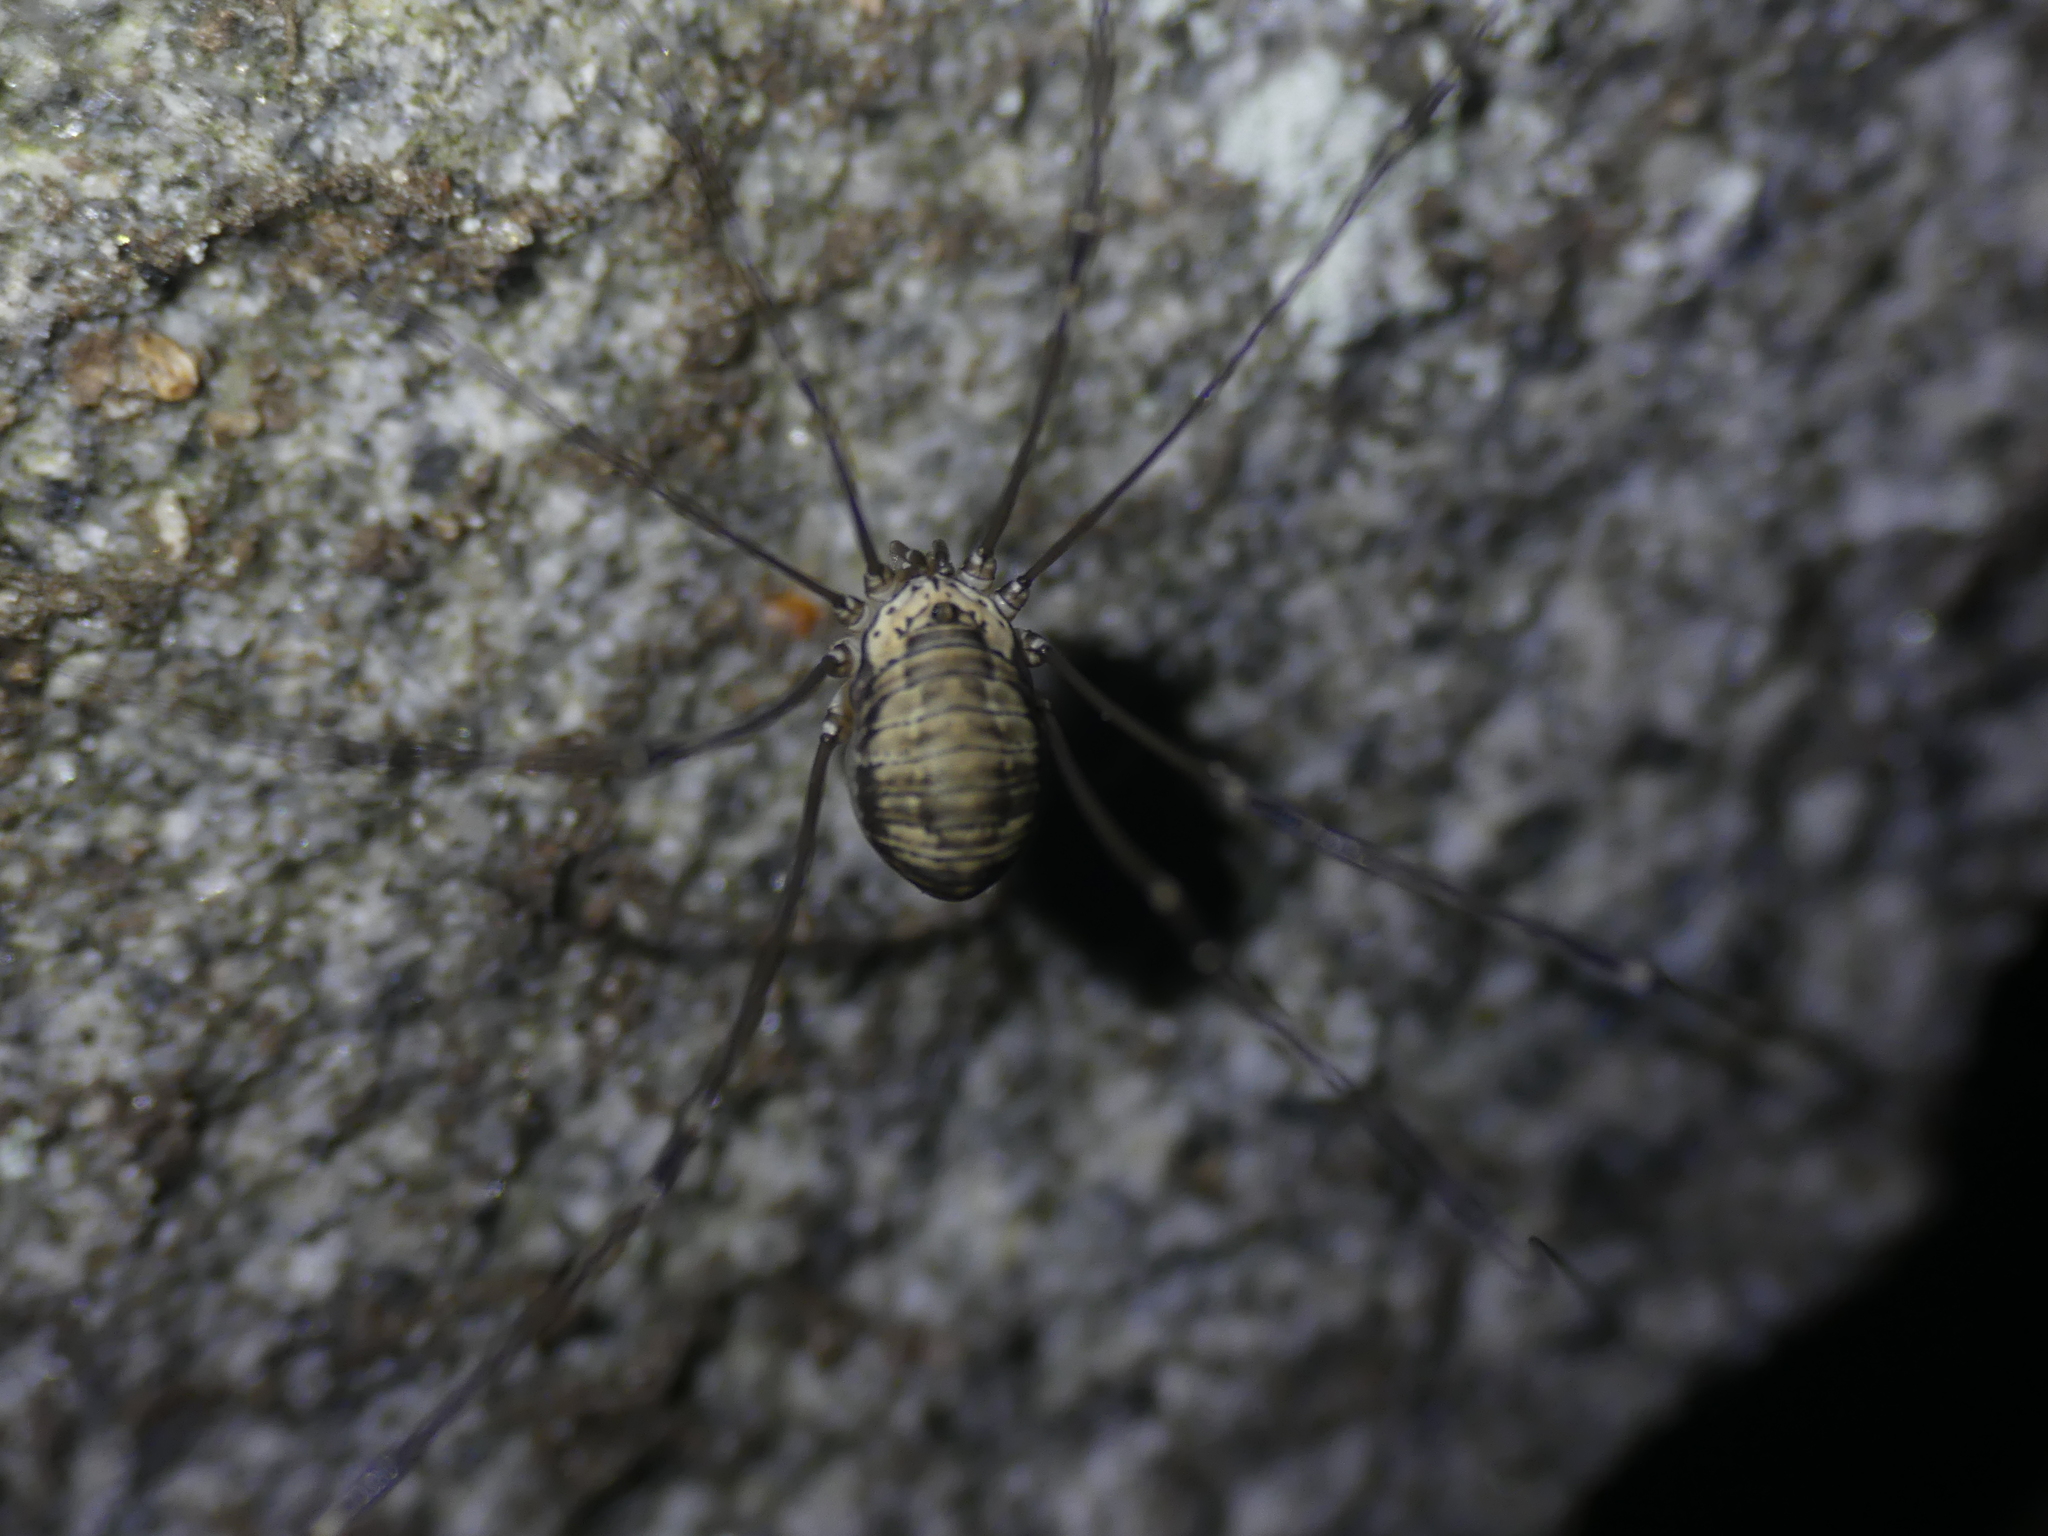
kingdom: Animalia
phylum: Arthropoda
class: Arachnida
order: Opiliones
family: Sclerosomatidae
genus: Leiobunum
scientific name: Leiobunum limbatum
